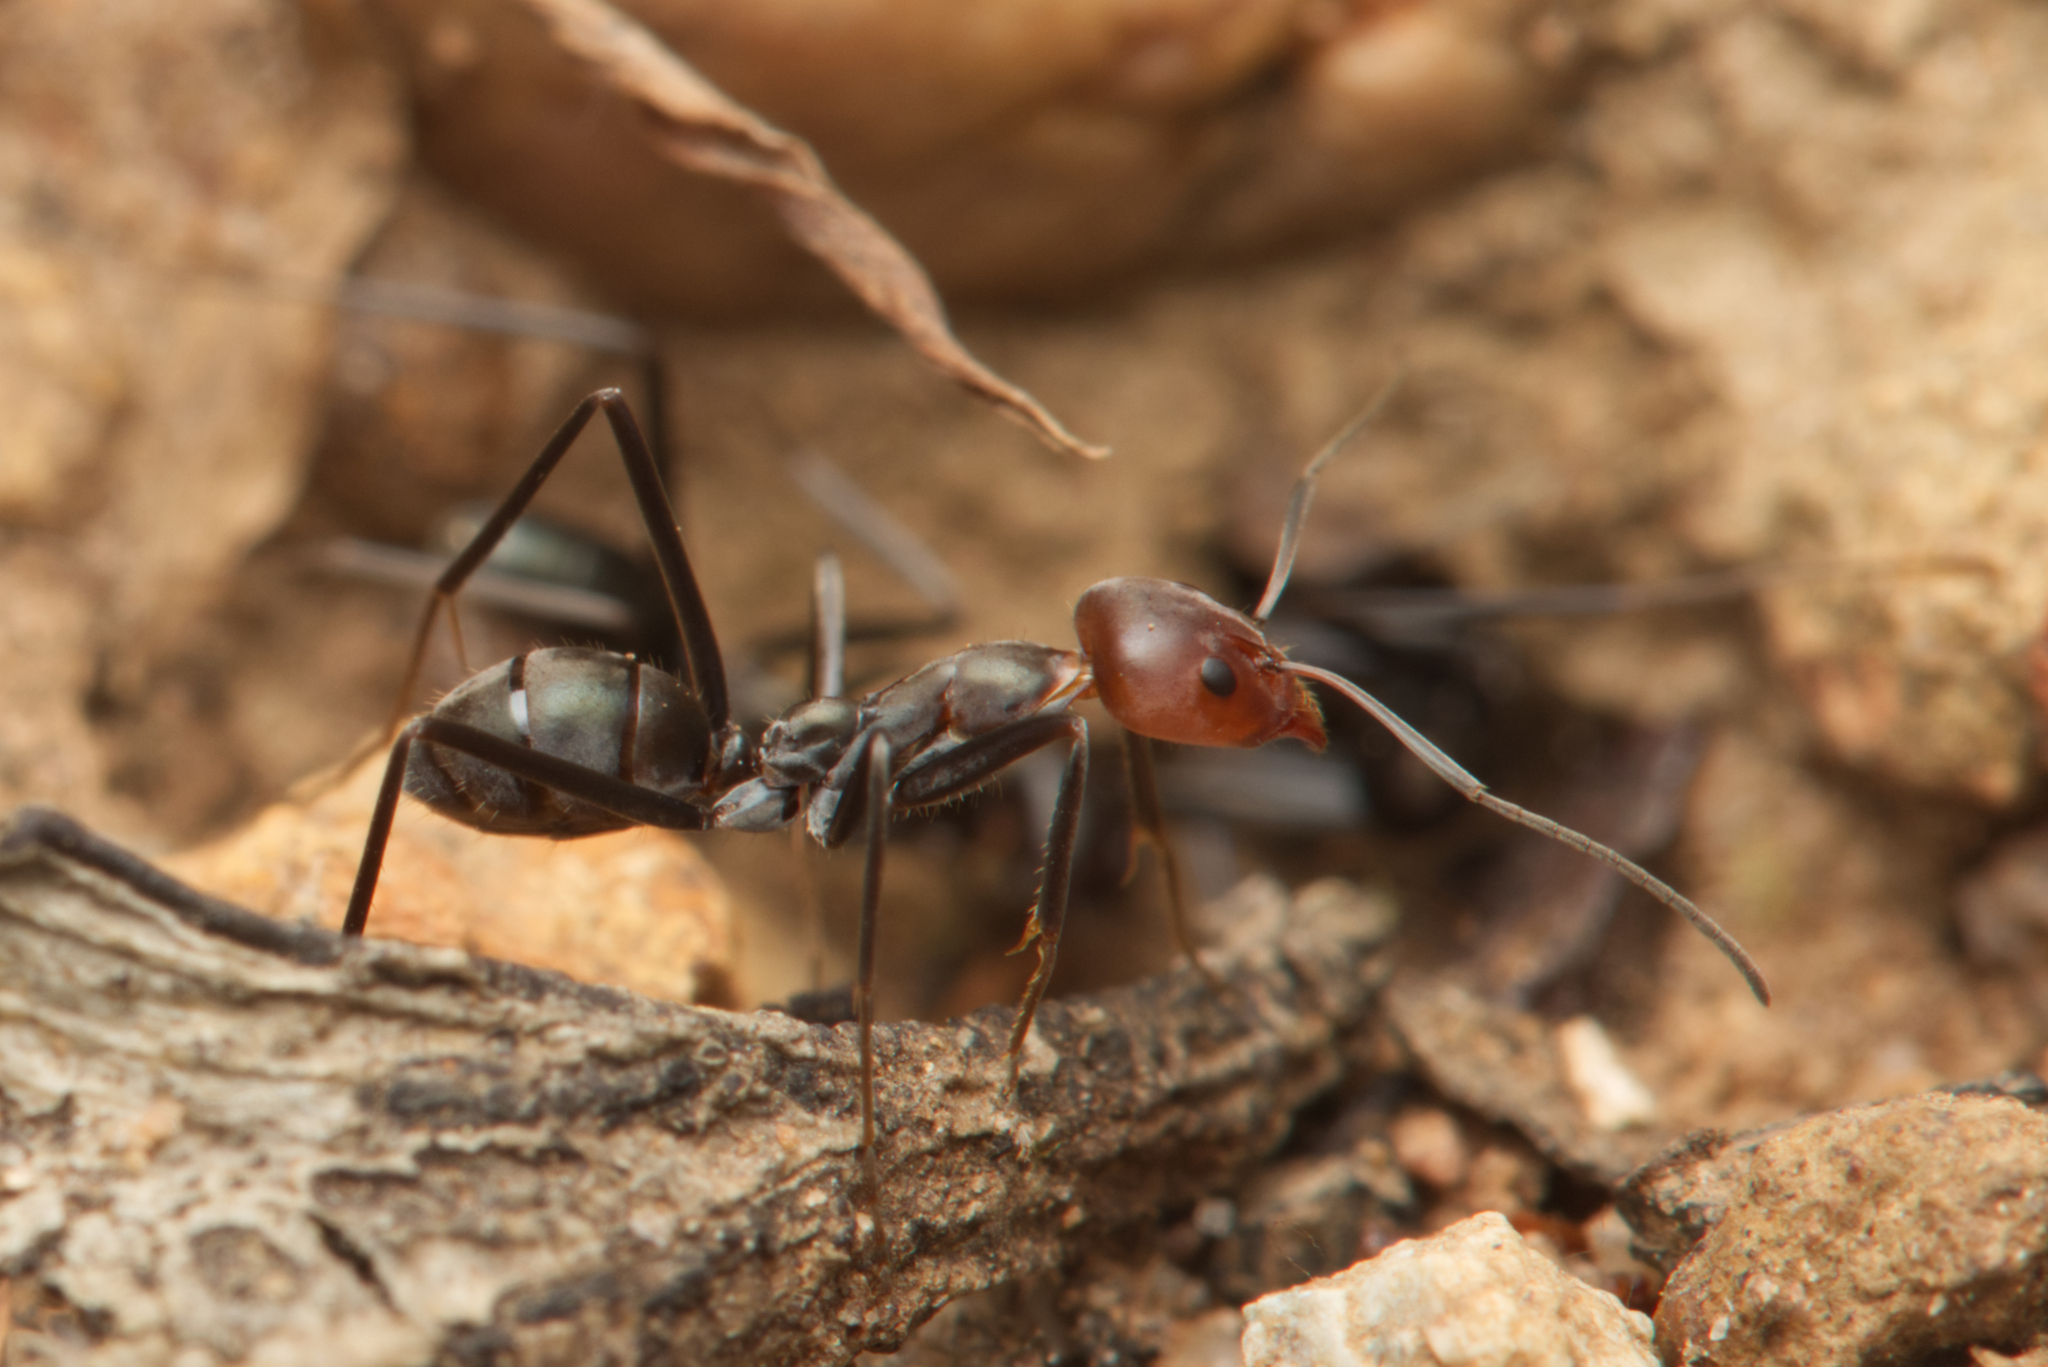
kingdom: Animalia
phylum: Arthropoda
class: Insecta
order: Hymenoptera
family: Formicidae
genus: Iridomyrmex
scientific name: Iridomyrmex
